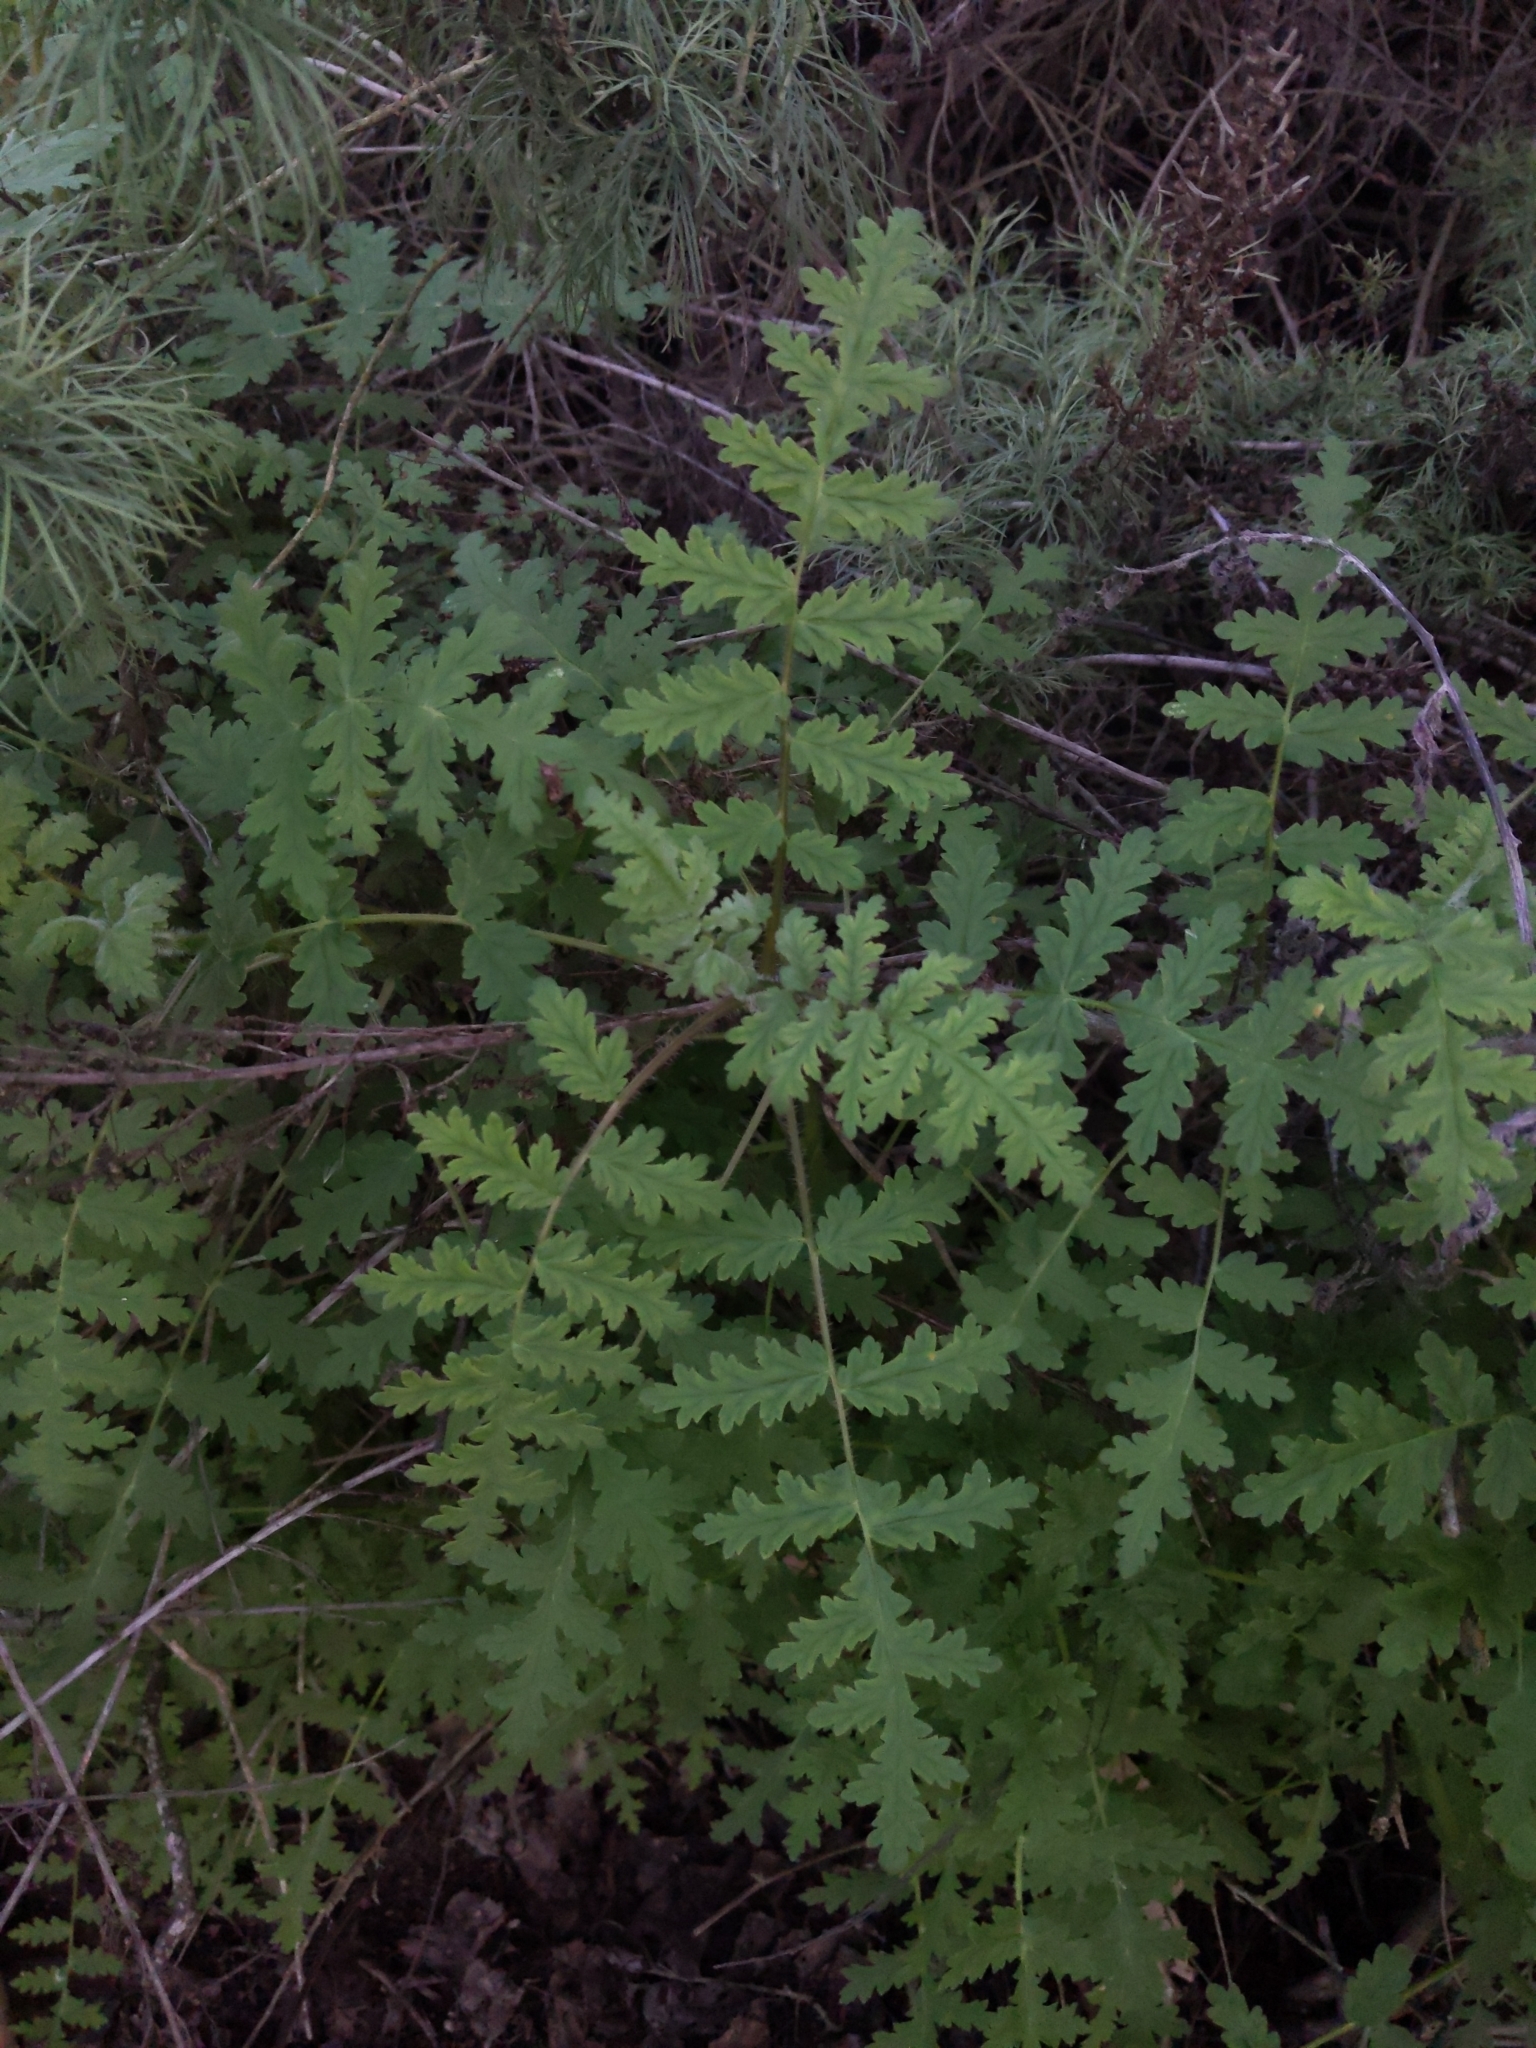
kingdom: Plantae
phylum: Tracheophyta
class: Magnoliopsida
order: Boraginales
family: Hydrophyllaceae
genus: Phacelia
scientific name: Phacelia ramosissima
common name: Branching phacelia
